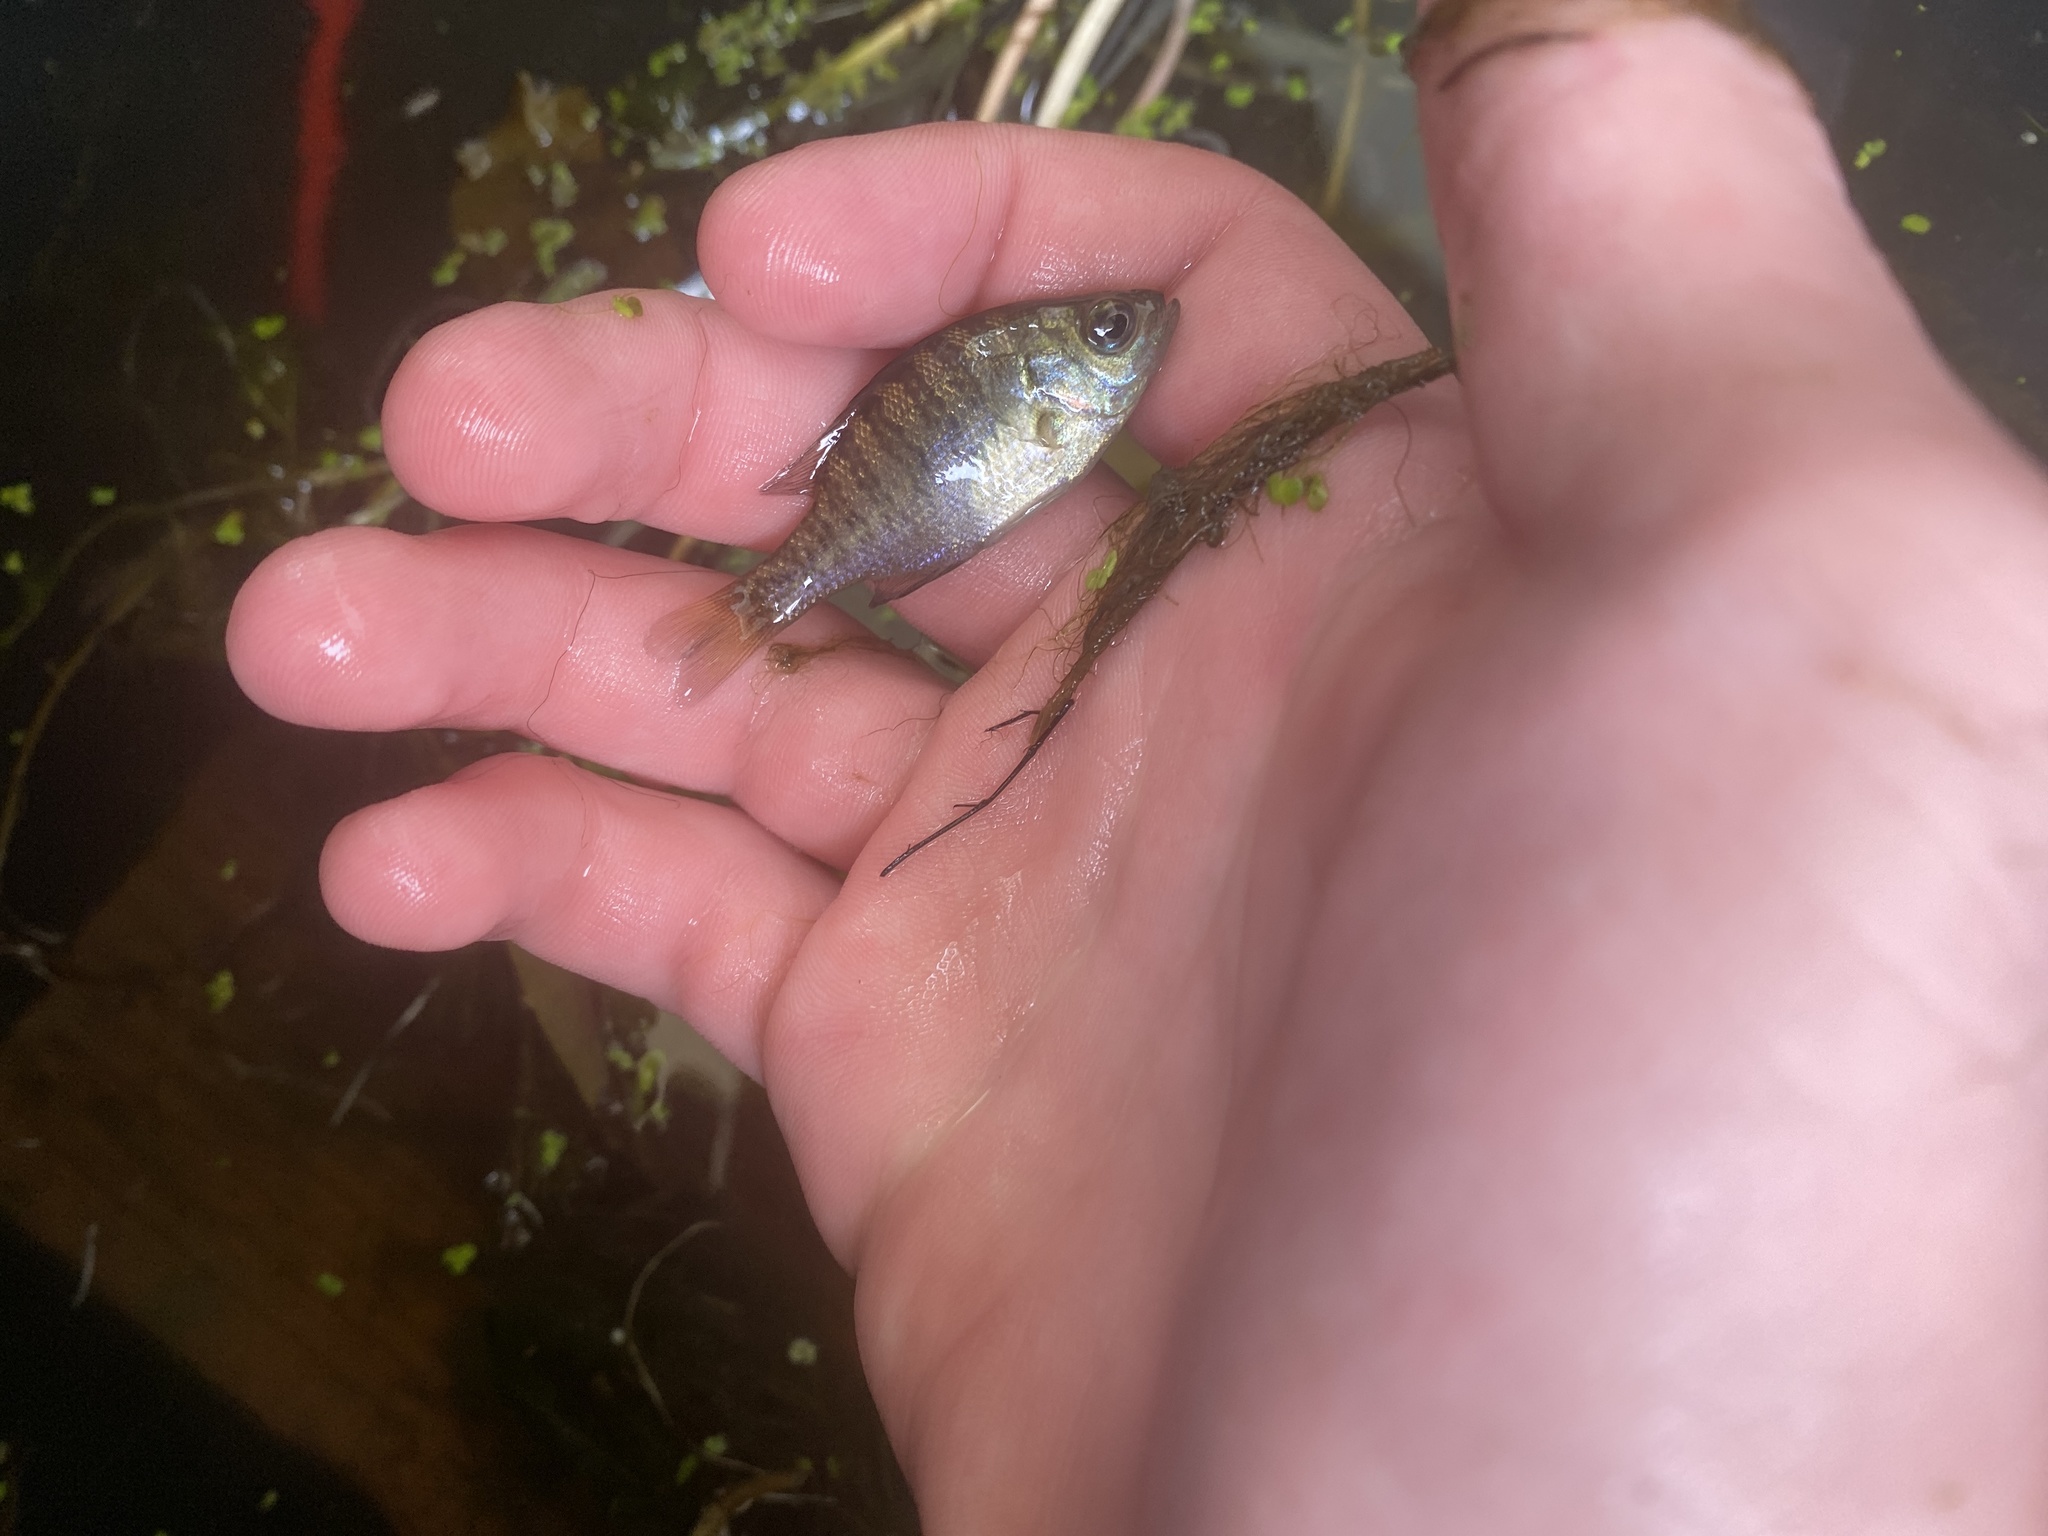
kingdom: Animalia
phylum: Chordata
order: Perciformes
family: Centrarchidae
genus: Lepomis
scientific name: Lepomis macrochirus
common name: Bluegill
